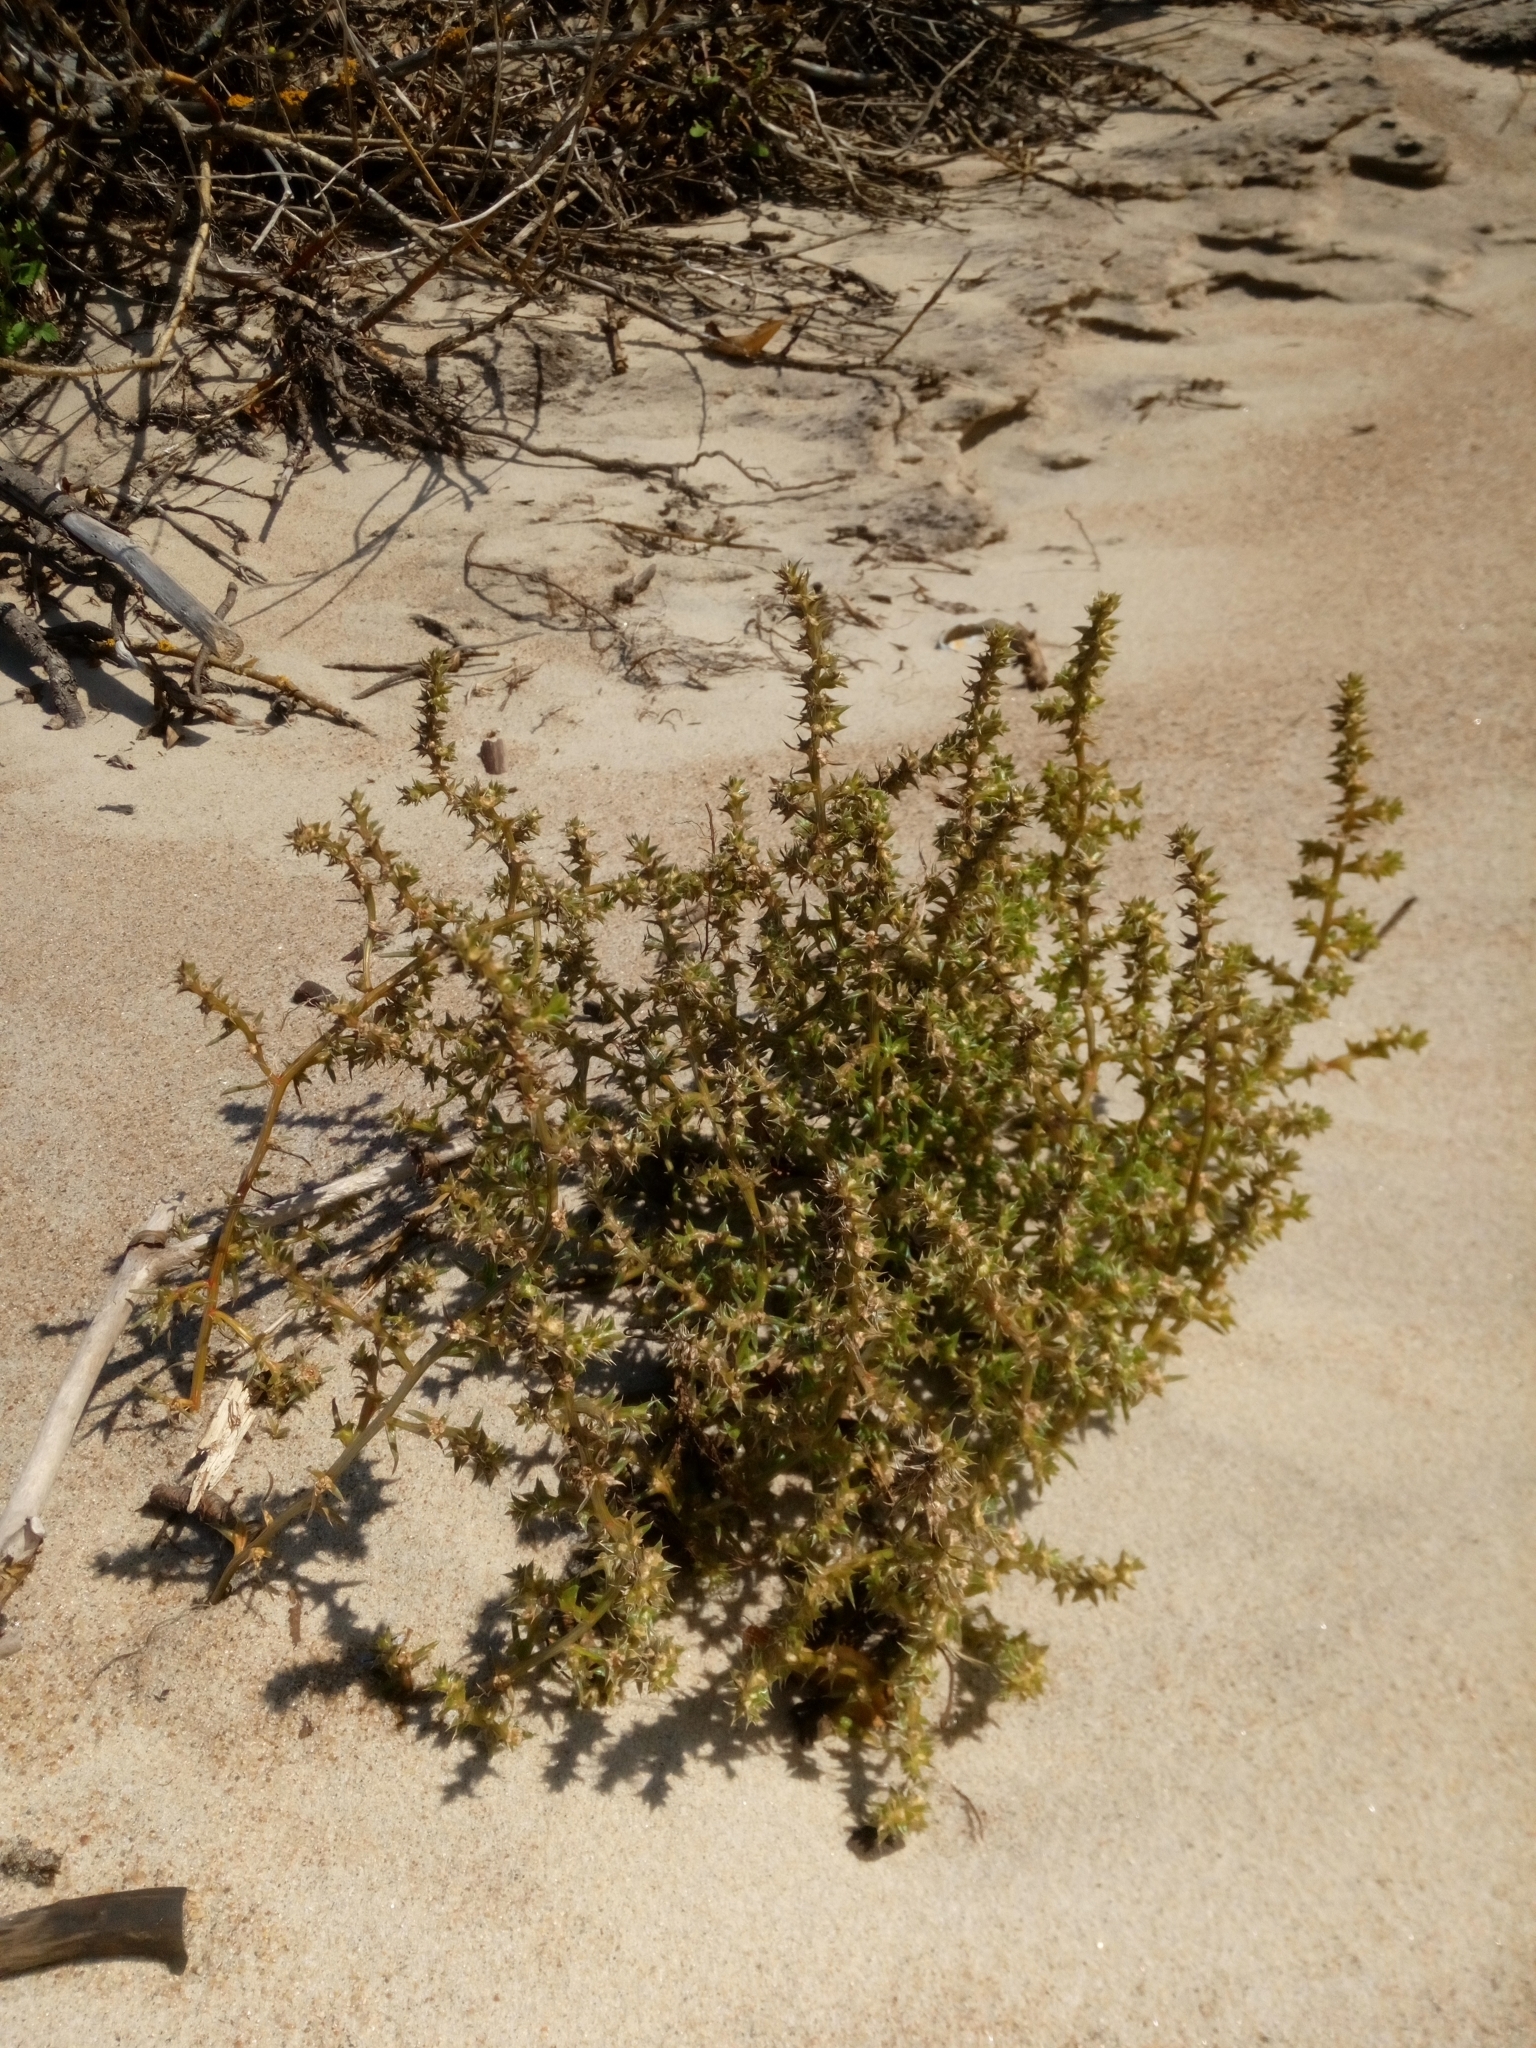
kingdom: Plantae
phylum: Tracheophyta
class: Magnoliopsida
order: Caryophyllales
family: Amaranthaceae
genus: Salsola
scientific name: Salsola kali
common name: Saltwort
